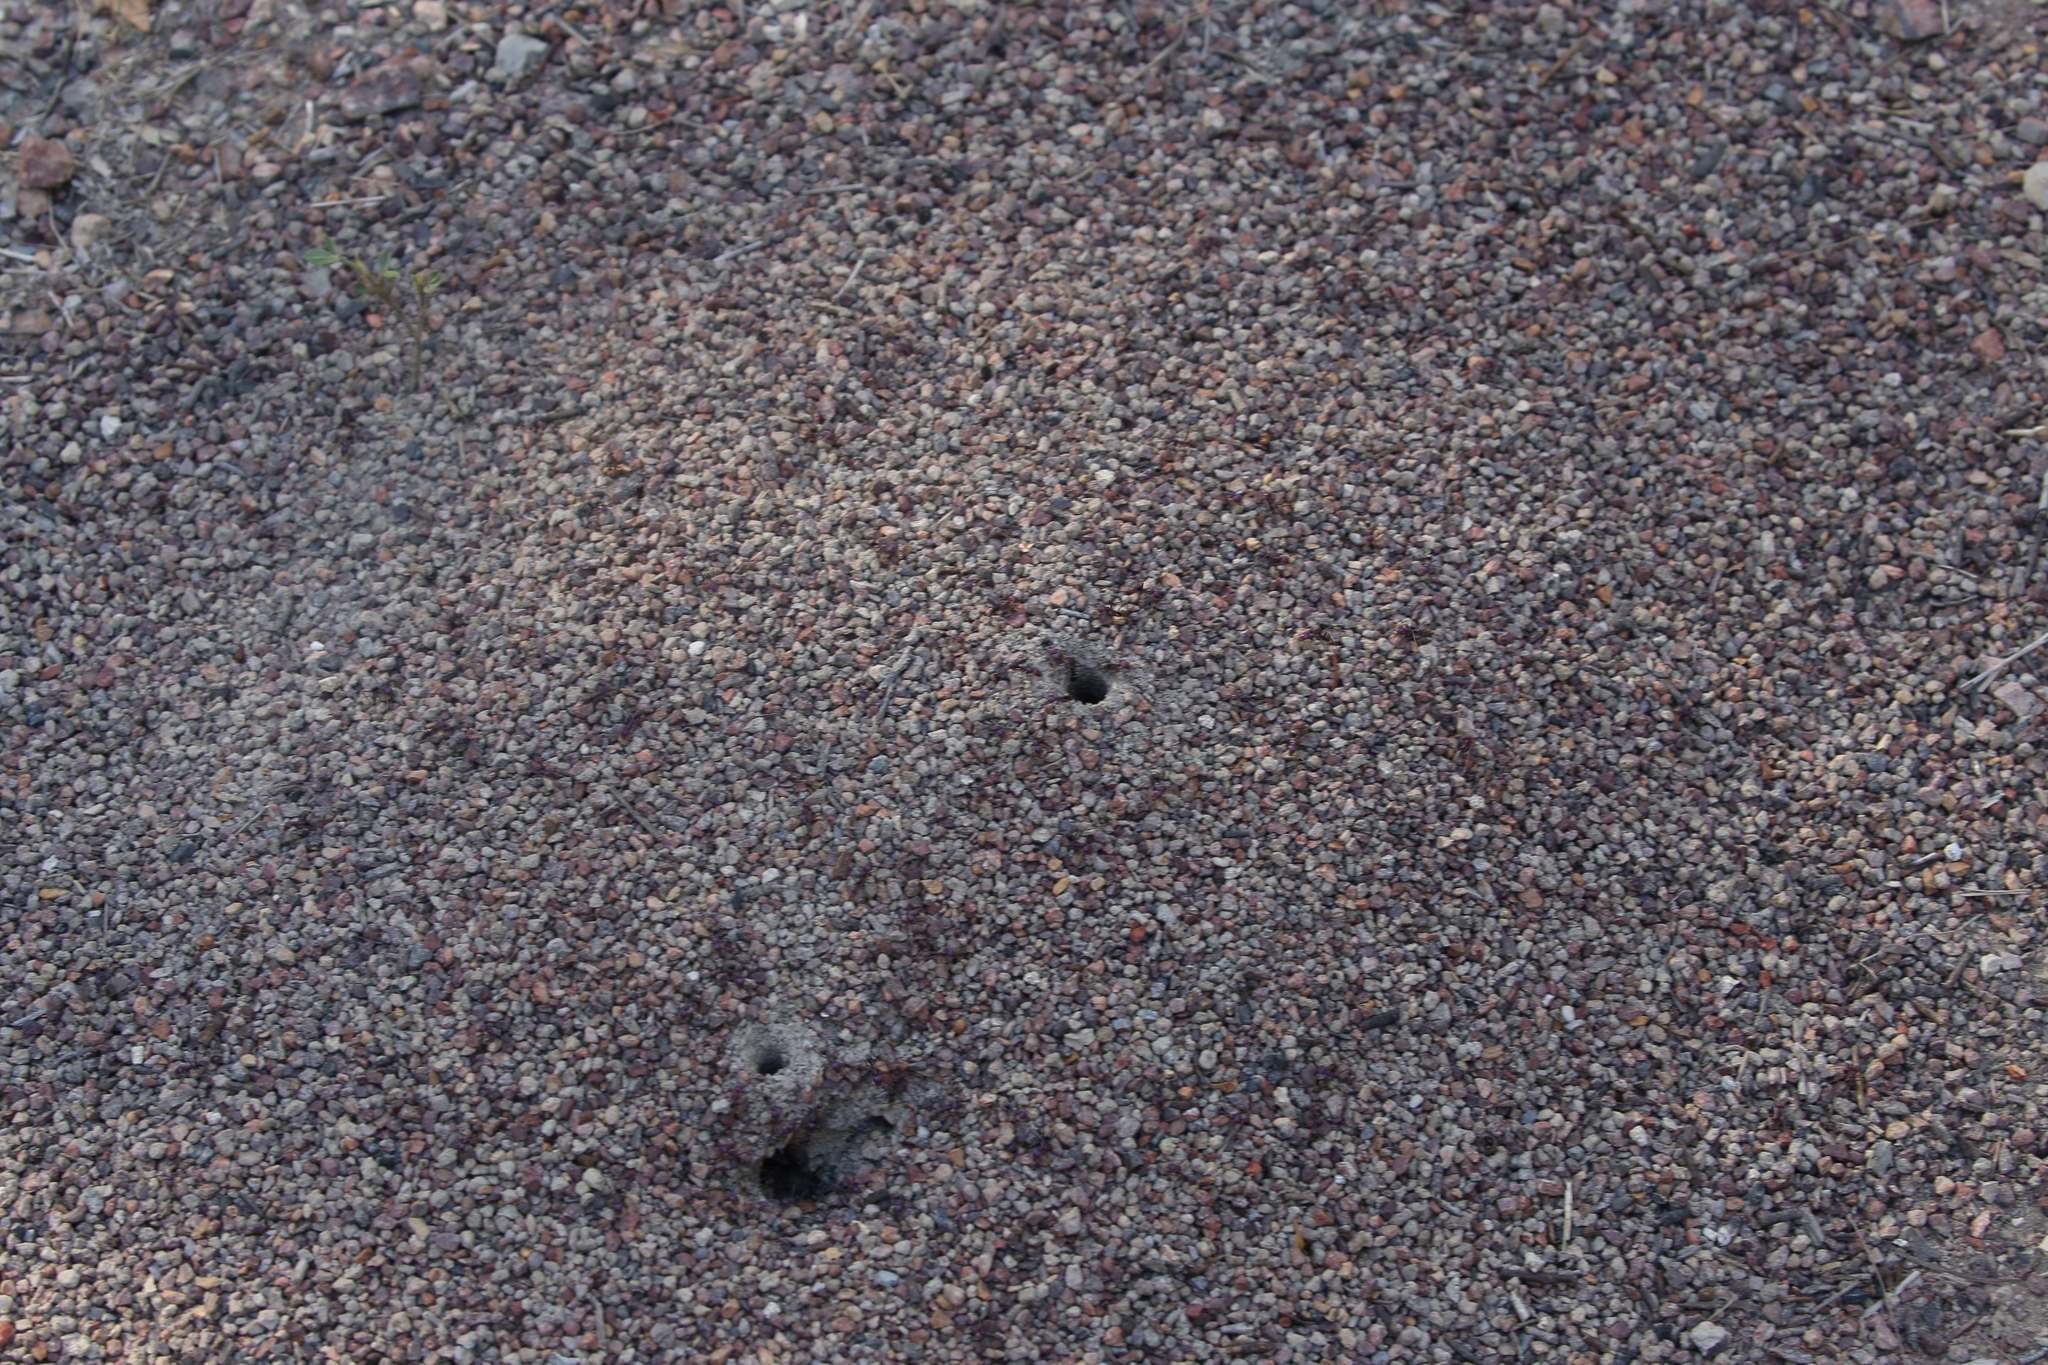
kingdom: Animalia
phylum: Arthropoda
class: Insecta
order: Hymenoptera
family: Formicidae
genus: Iridomyrmex
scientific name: Iridomyrmex purpureus
